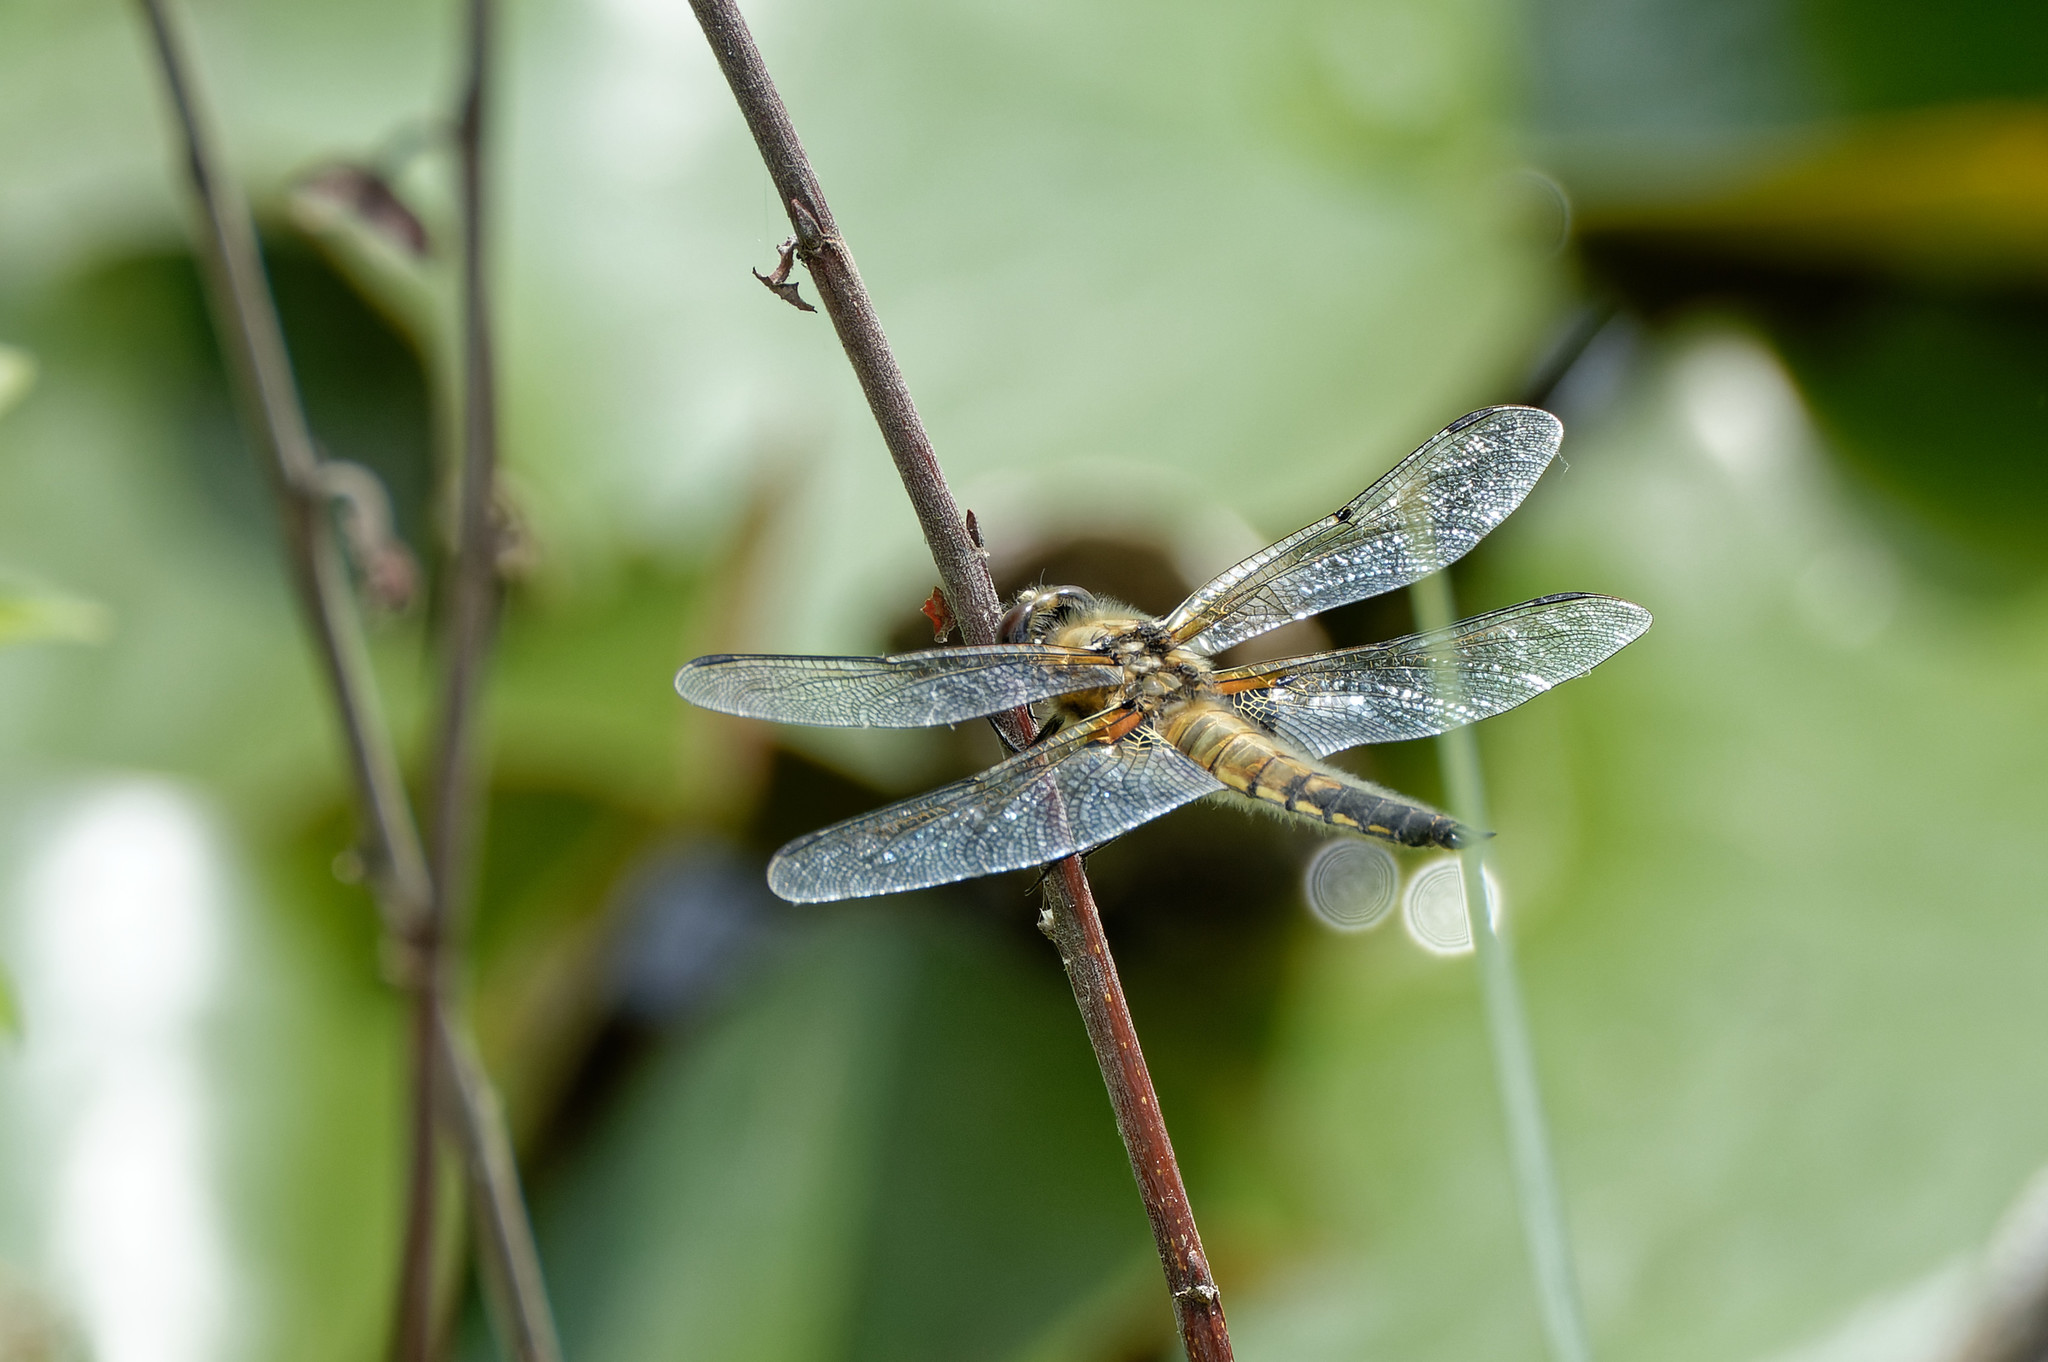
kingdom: Animalia
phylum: Arthropoda
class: Insecta
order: Odonata
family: Libellulidae
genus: Libellula
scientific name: Libellula quadrimaculata
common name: Four-spotted chaser
